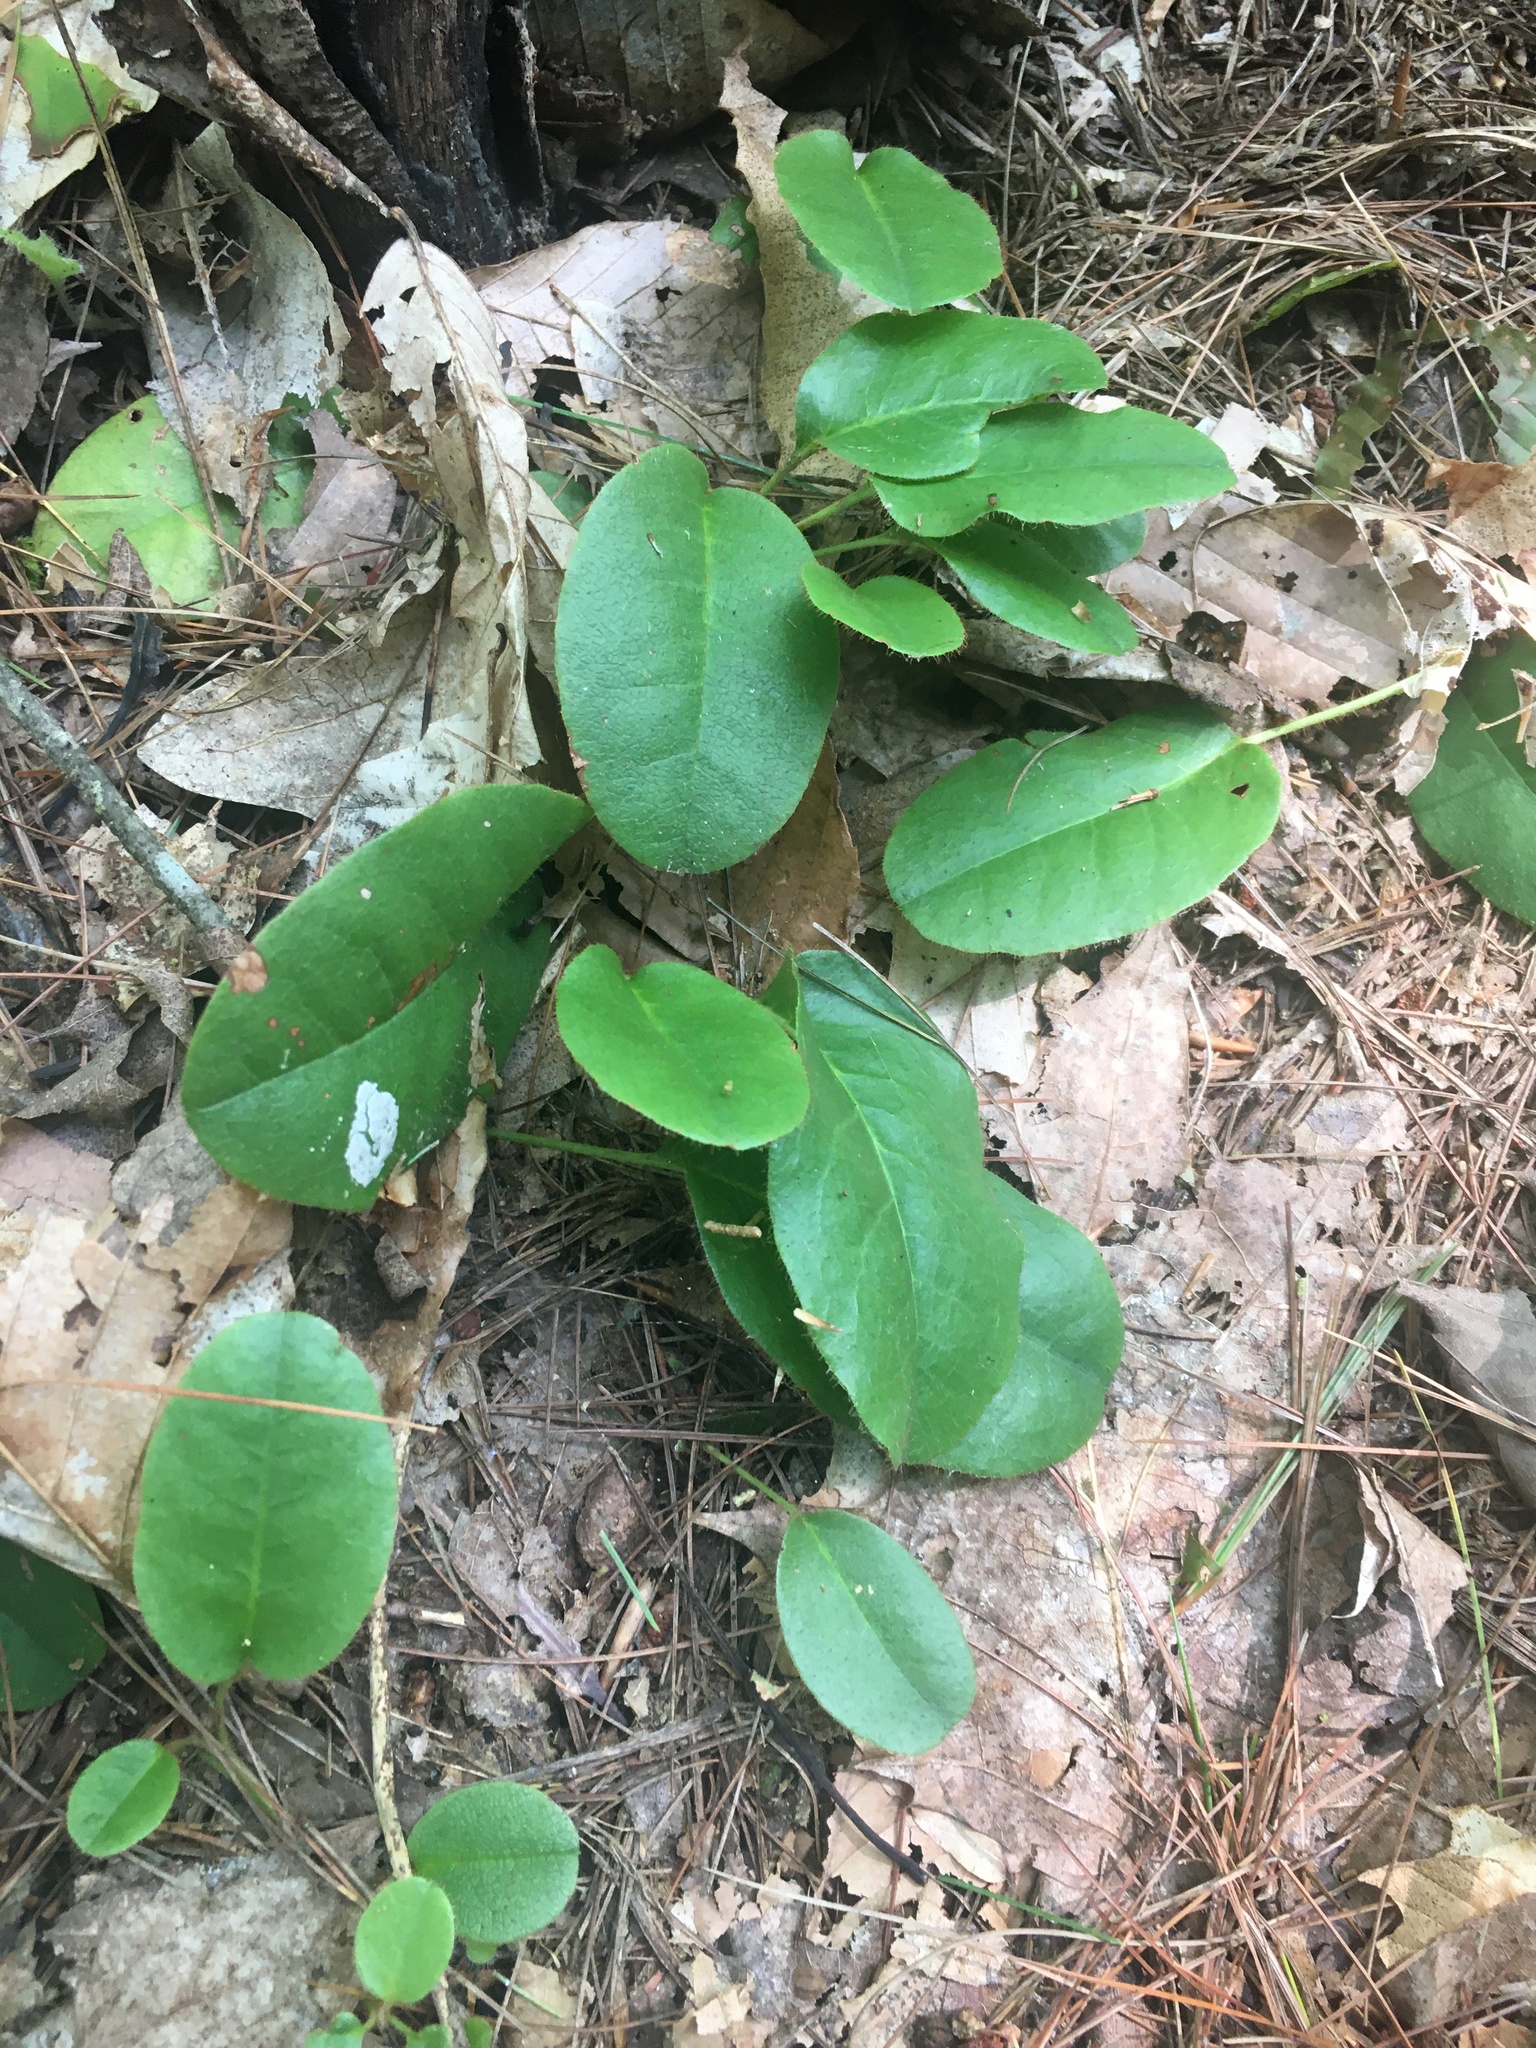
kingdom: Plantae
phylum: Tracheophyta
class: Magnoliopsida
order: Ericales
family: Ericaceae
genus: Epigaea
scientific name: Epigaea repens
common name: Gravelroot
